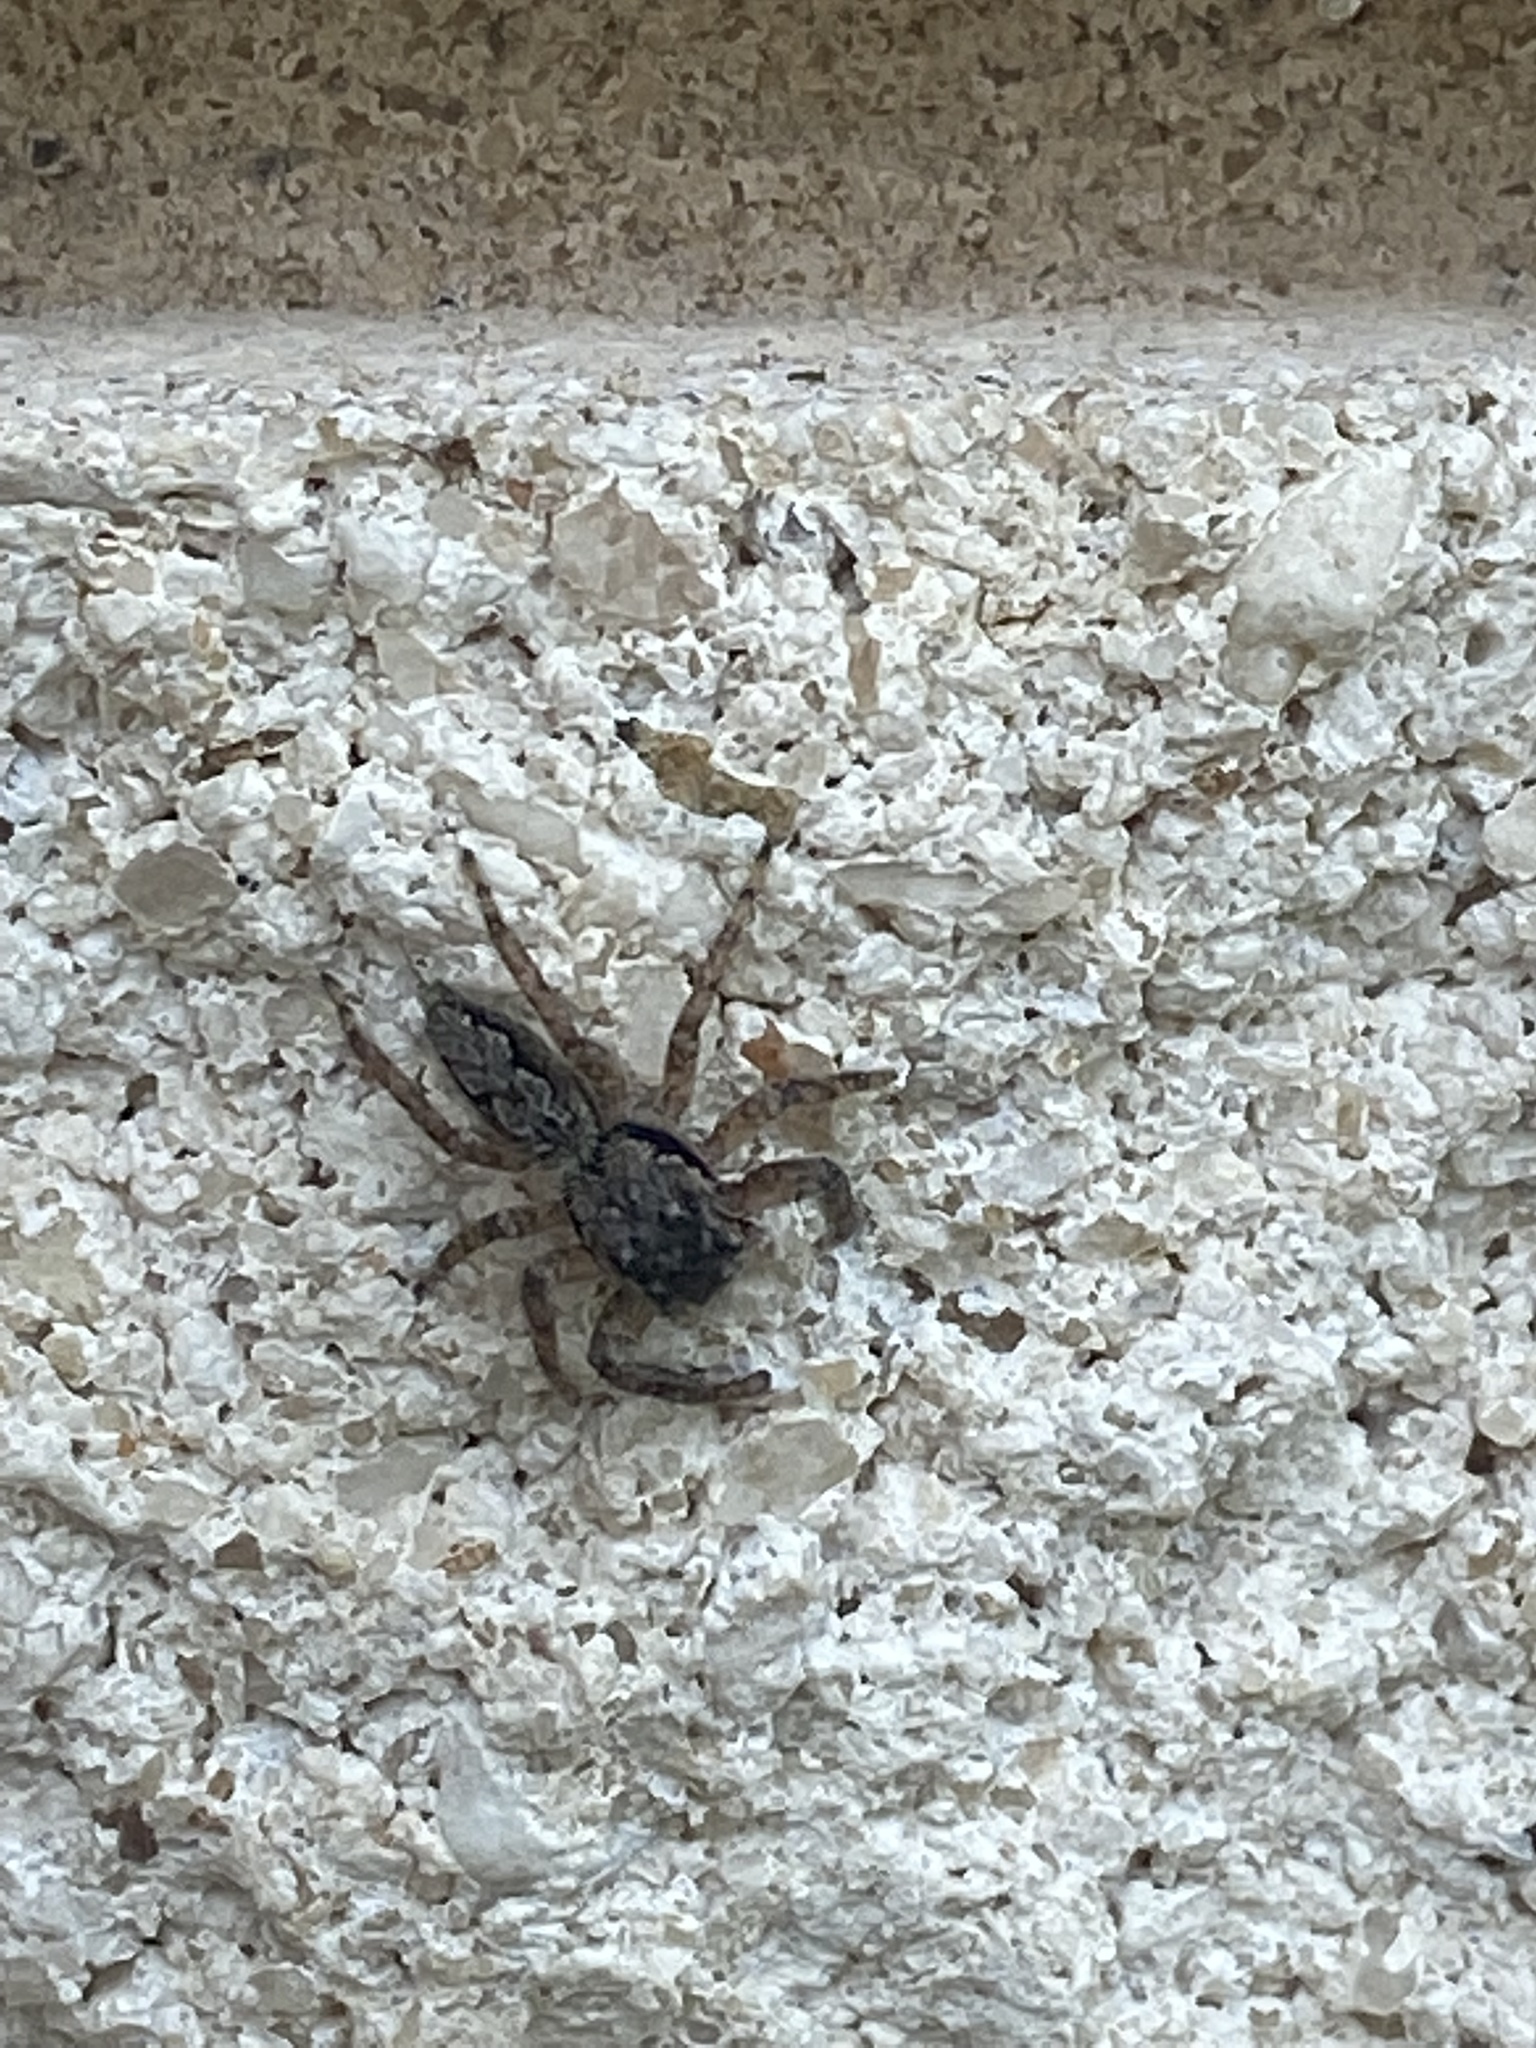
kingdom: Animalia
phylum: Arthropoda
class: Arachnida
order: Araneae
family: Salticidae
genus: Platycryptus
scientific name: Platycryptus undatus
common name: Tan jumping spider
